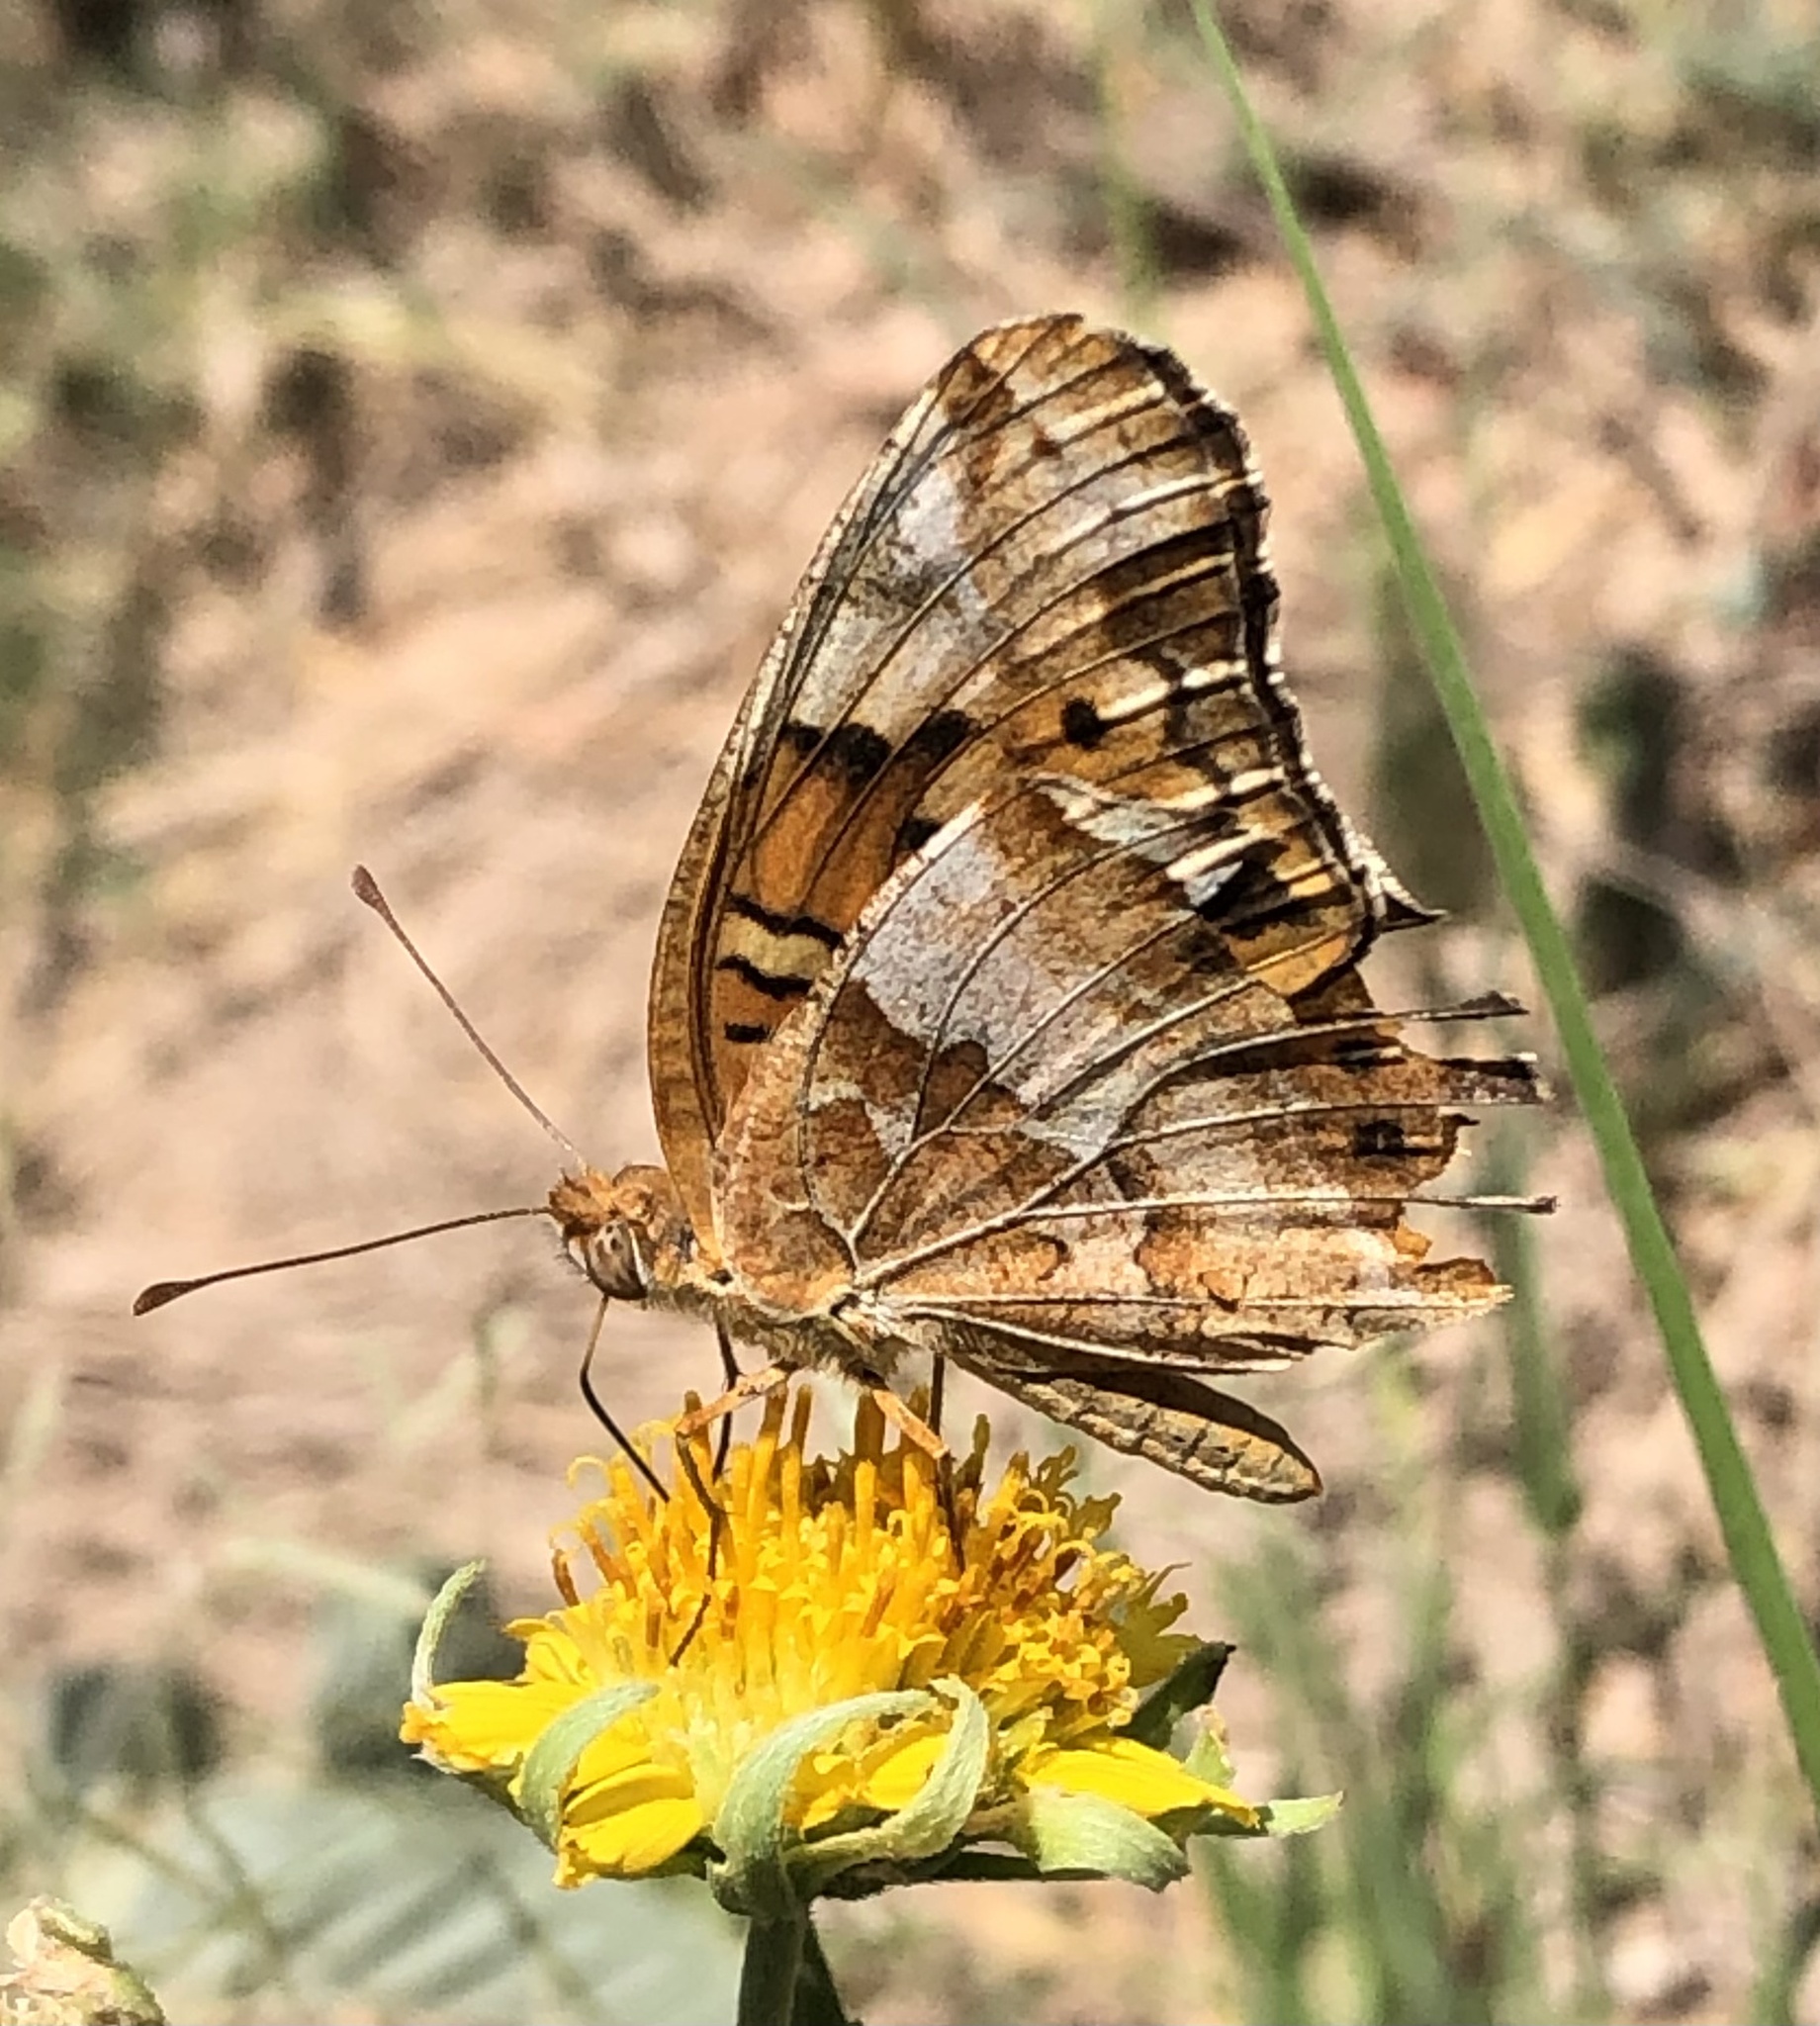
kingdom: Animalia
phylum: Arthropoda
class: Insecta
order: Lepidoptera
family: Nymphalidae
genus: Euptoieta
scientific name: Euptoieta claudia
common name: Variegated fritillary
